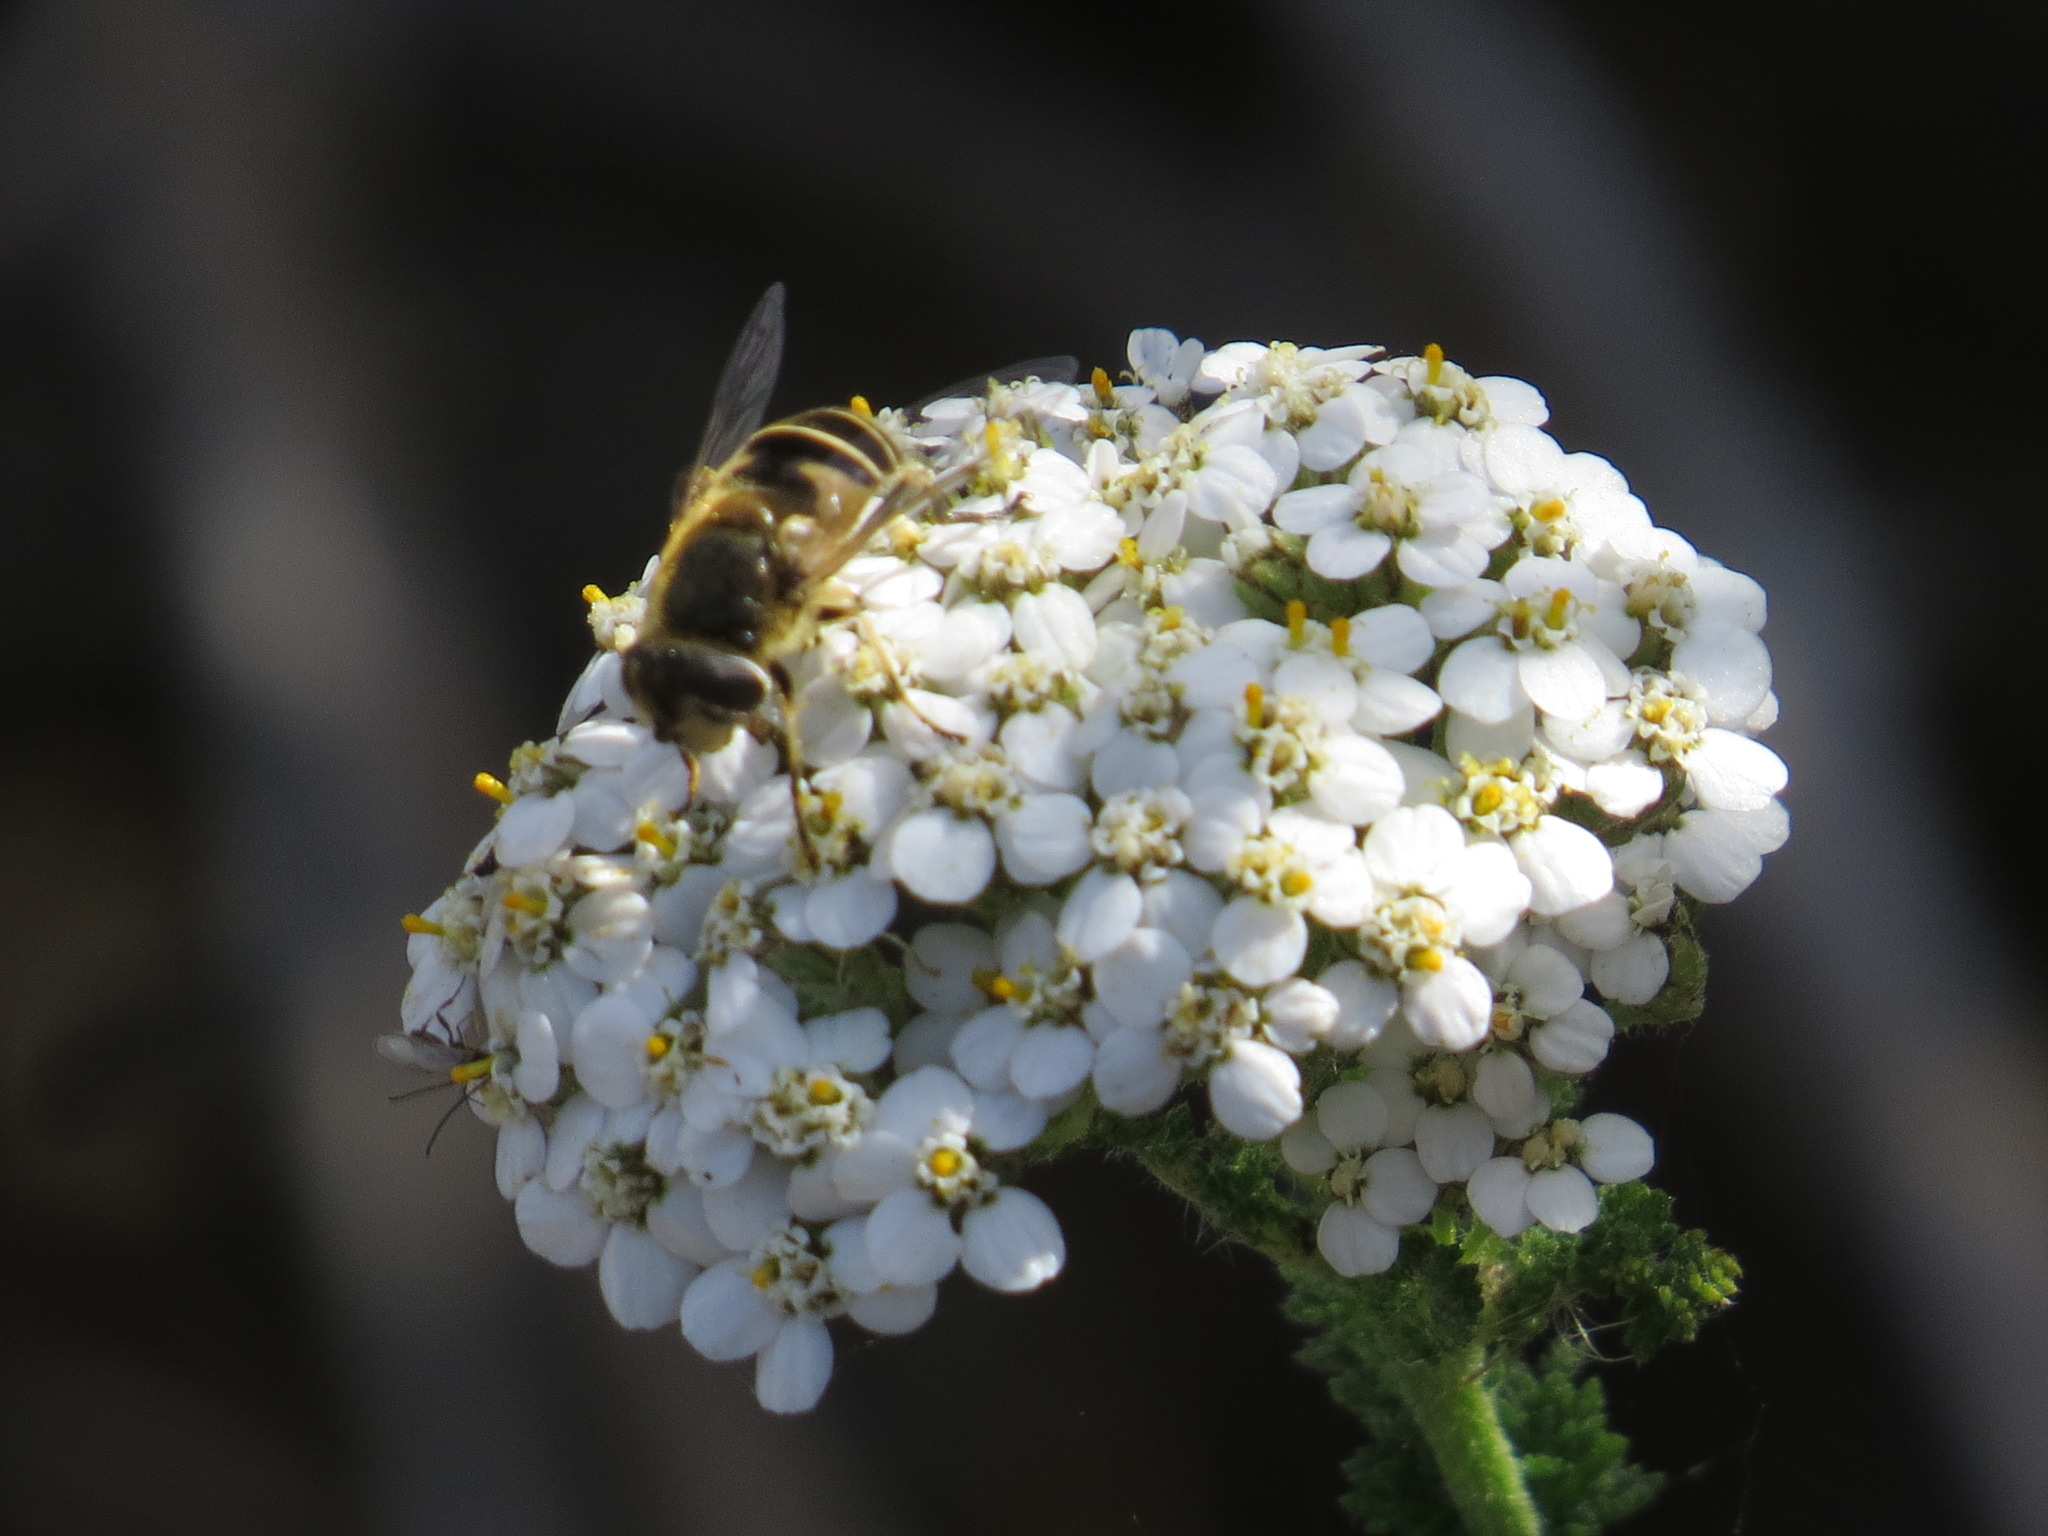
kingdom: Animalia
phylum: Arthropoda
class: Insecta
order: Diptera
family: Syrphidae
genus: Eristalis
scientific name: Eristalis hirta
